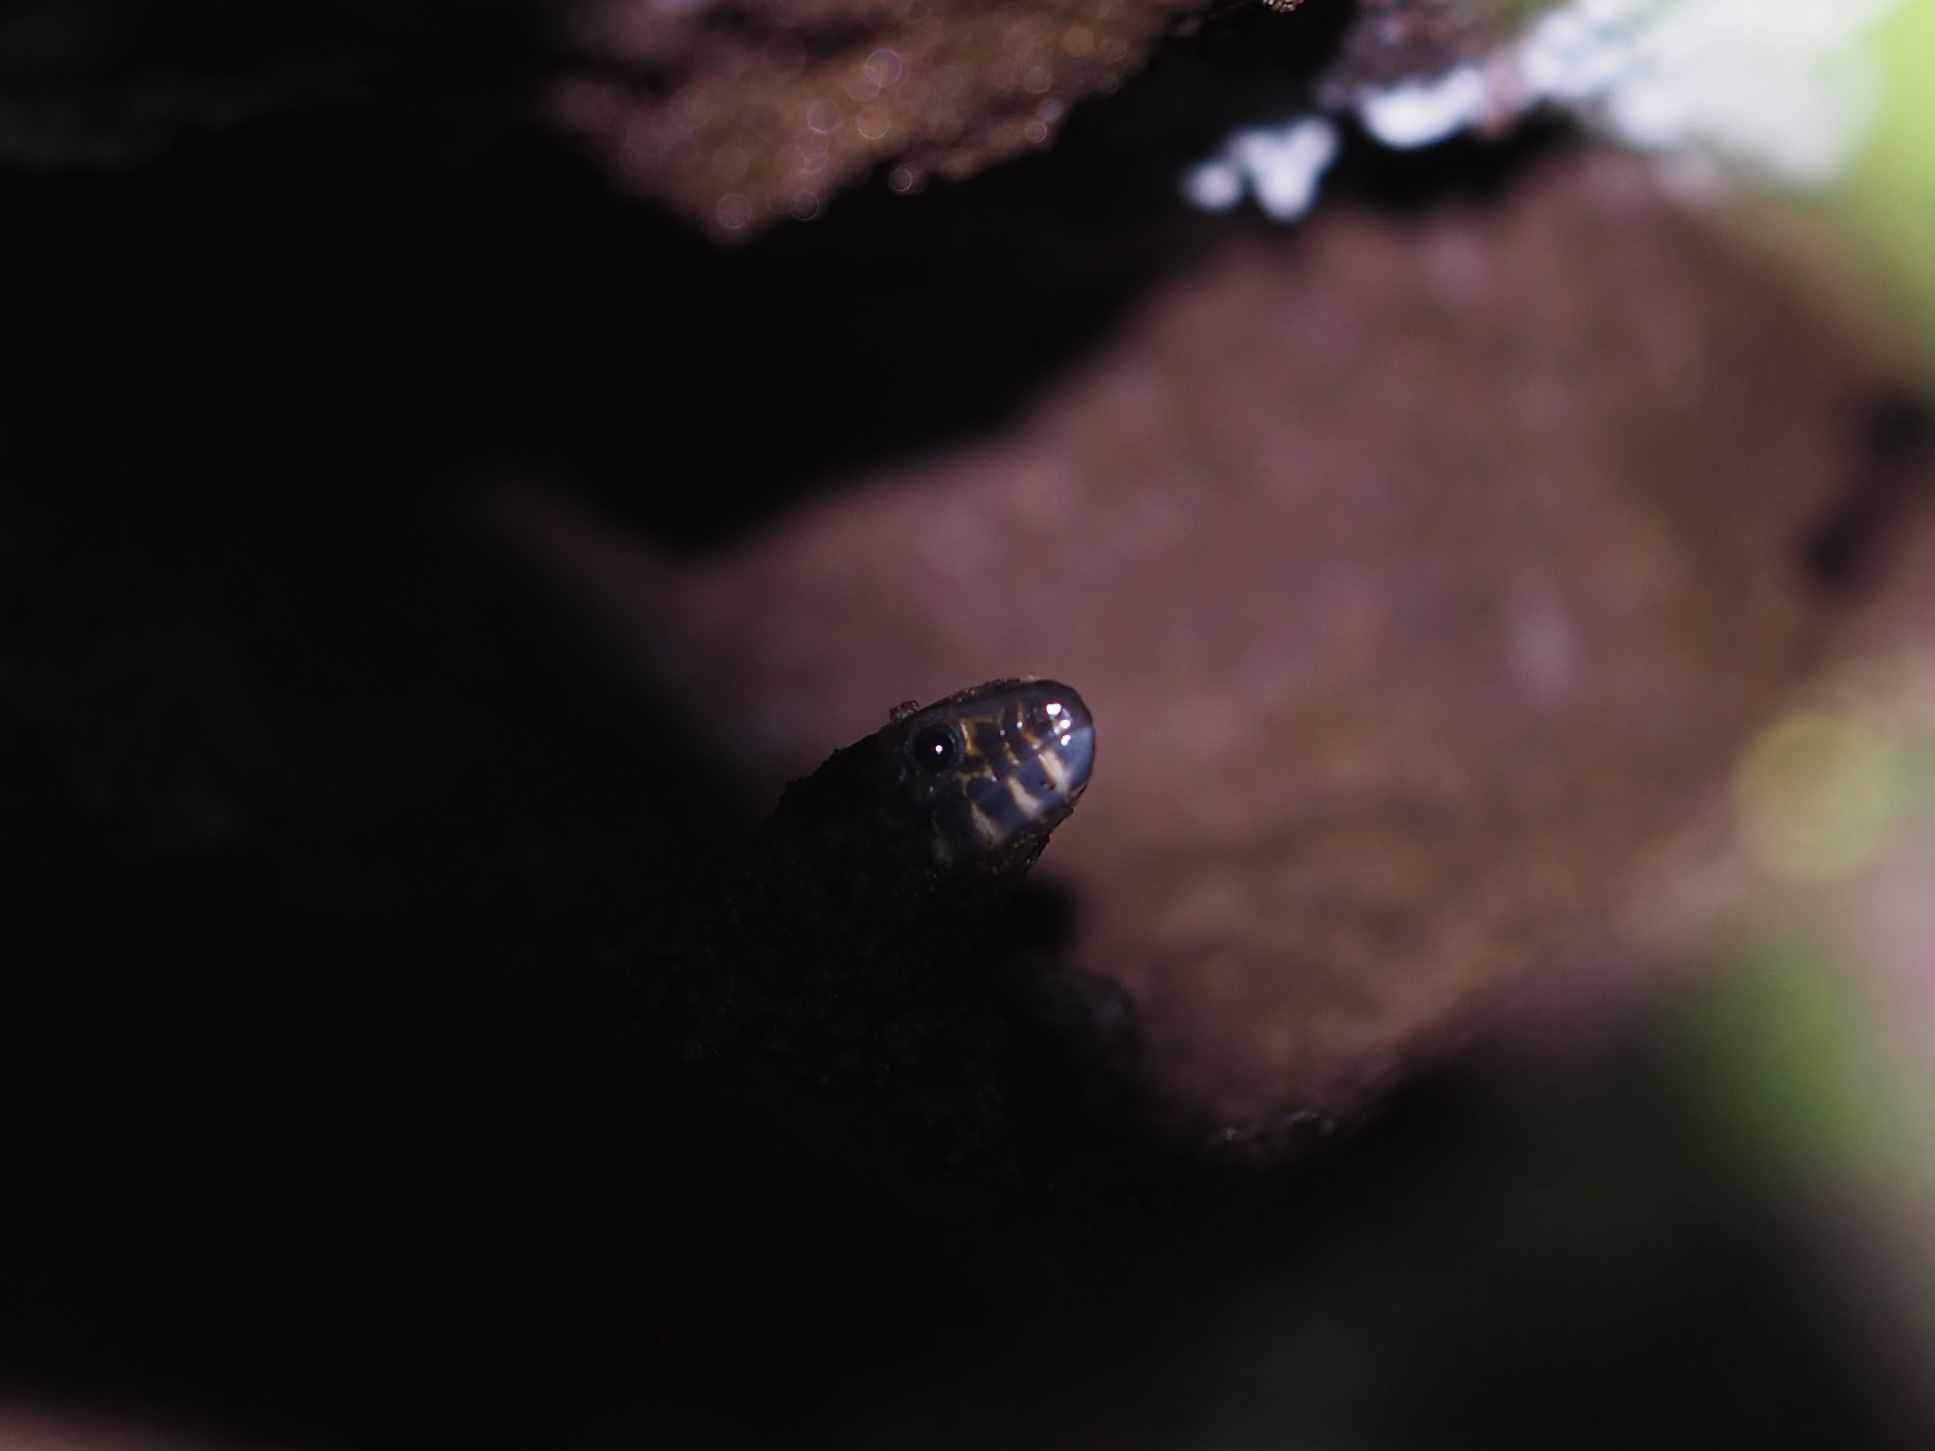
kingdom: Animalia
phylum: Chordata
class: Squamata
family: Xantusiidae
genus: Lepidophyma
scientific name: Lepidophyma flavimaculatum
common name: Yellow-spotted night lizard
